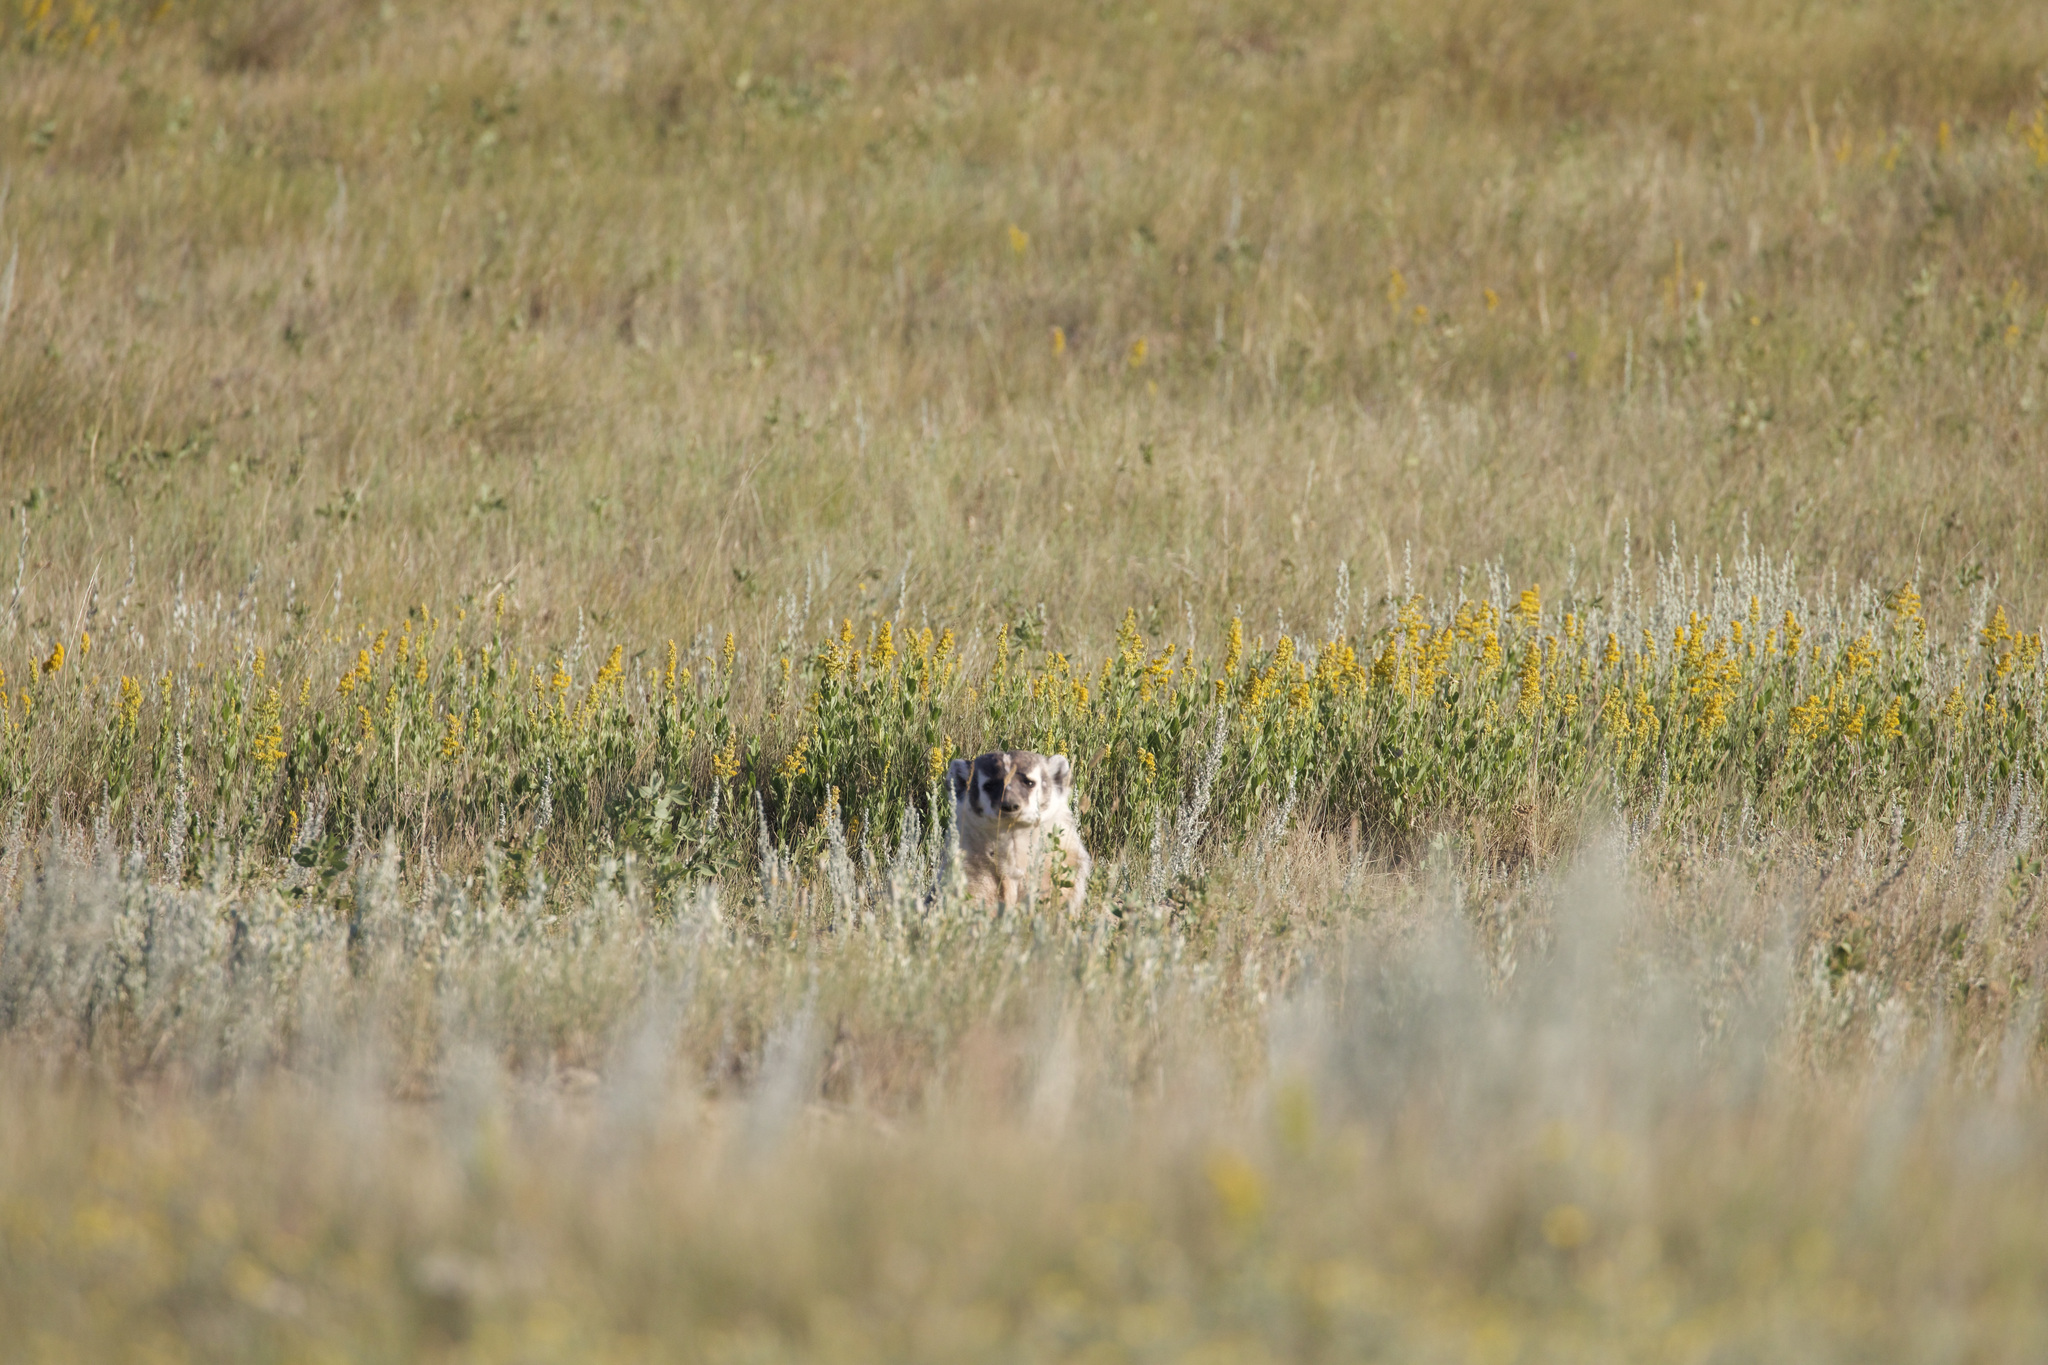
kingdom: Animalia
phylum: Chordata
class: Mammalia
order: Carnivora
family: Mustelidae
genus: Taxidea
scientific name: Taxidea taxus
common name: American badger
